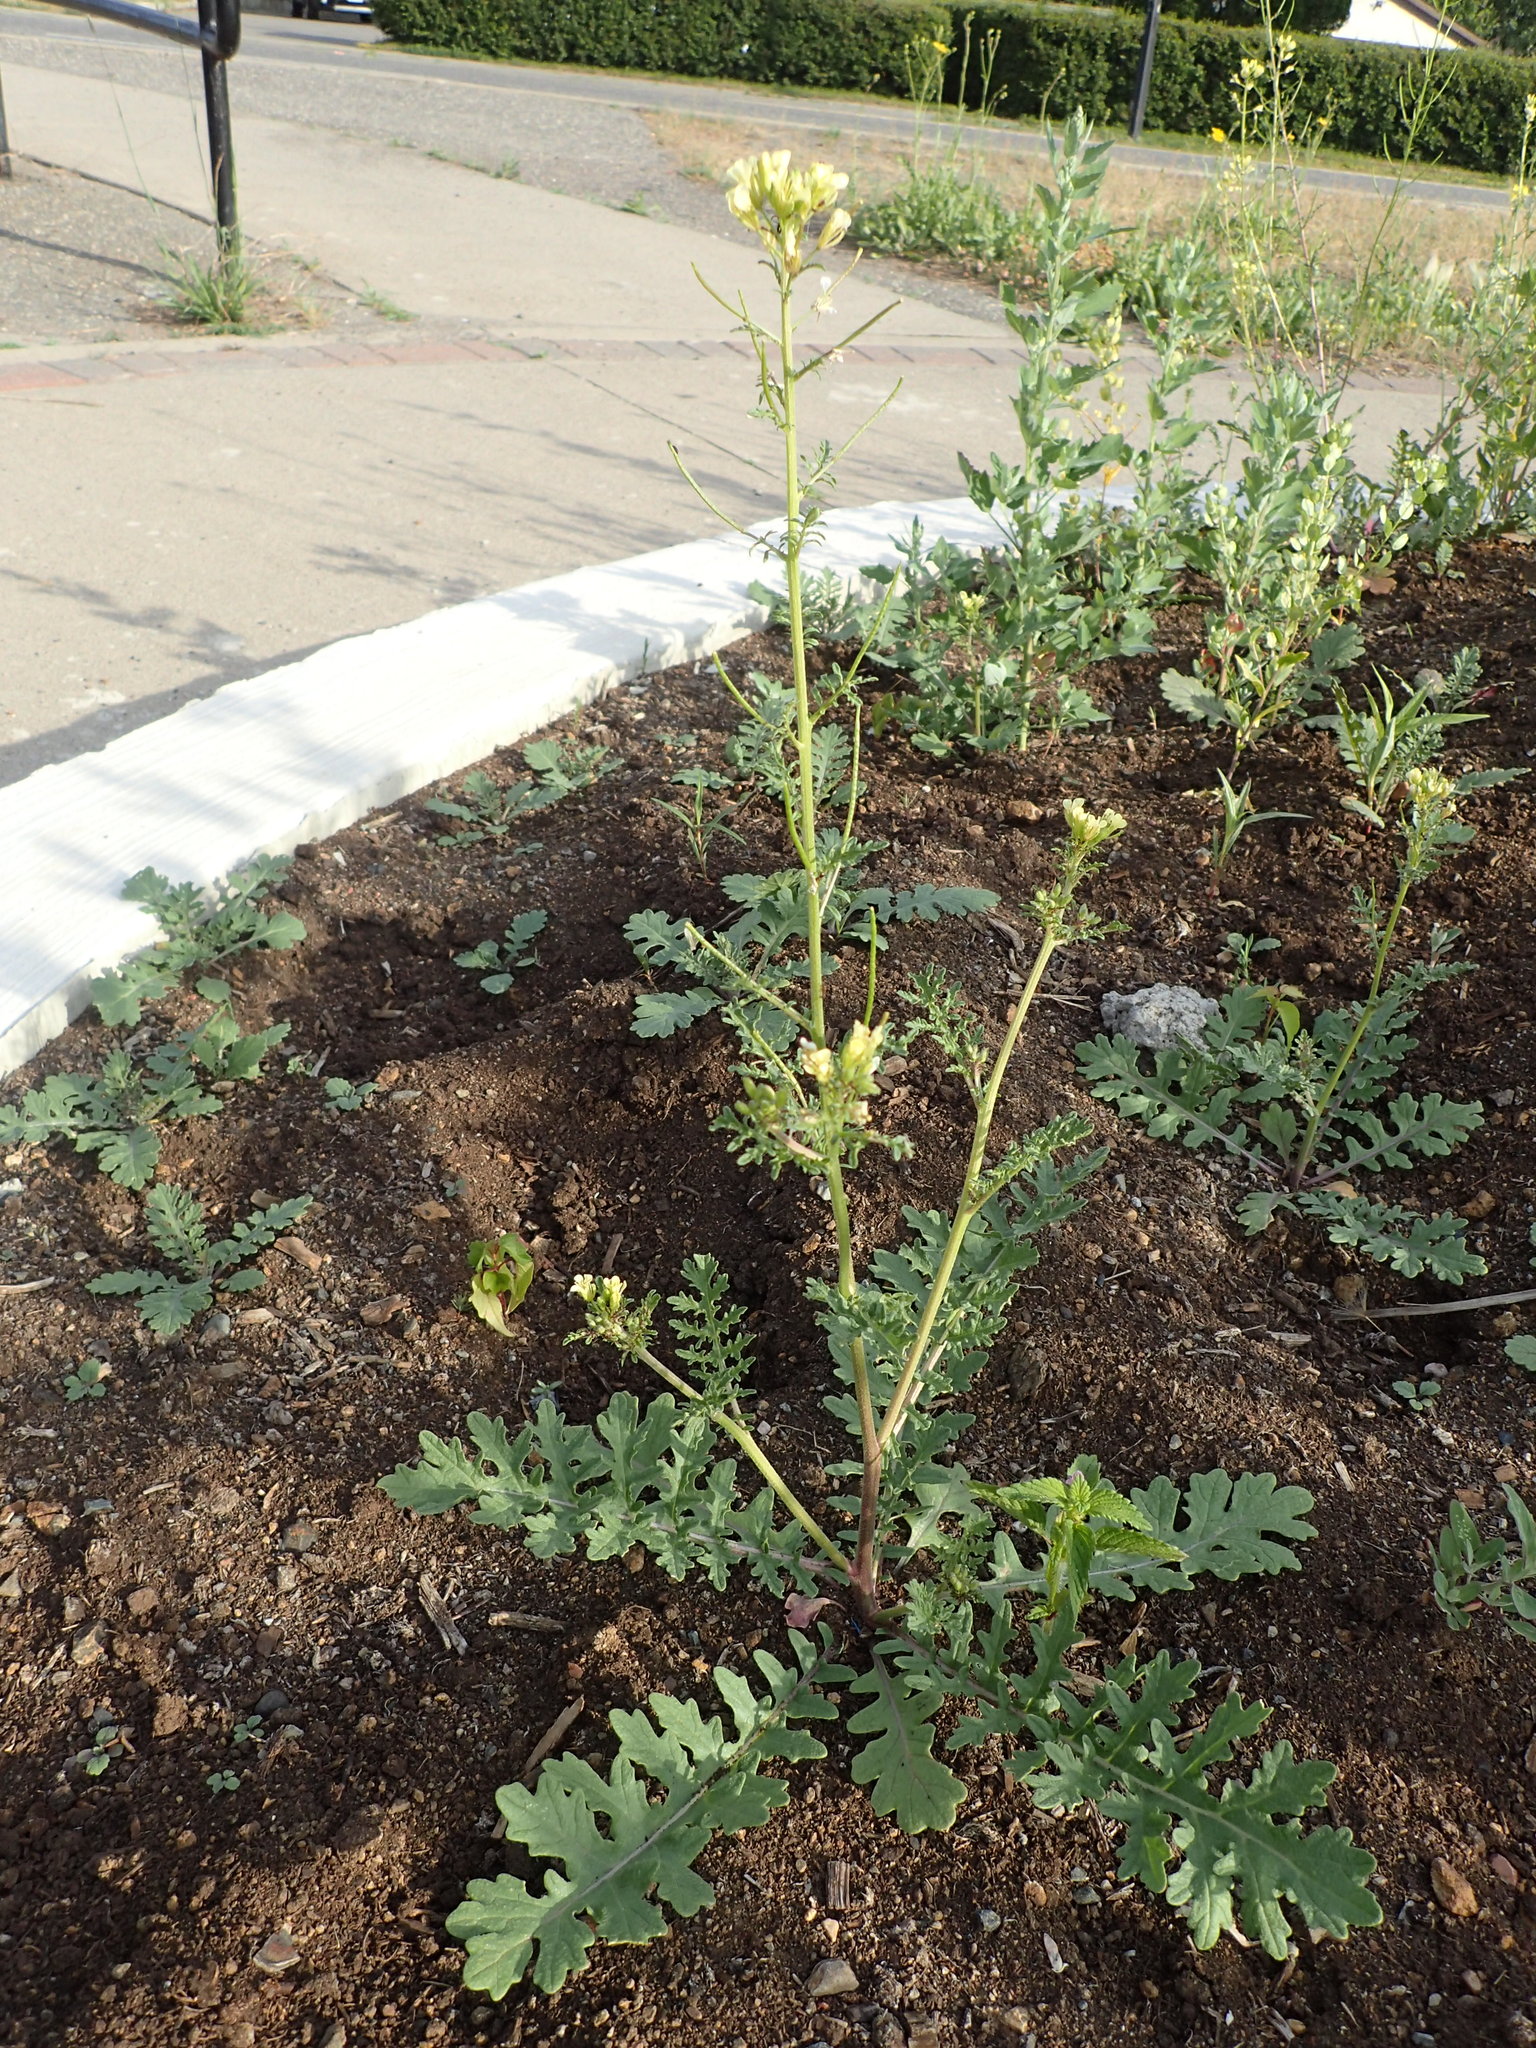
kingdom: Plantae
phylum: Tracheophyta
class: Magnoliopsida
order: Brassicales
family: Brassicaceae
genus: Erucastrum
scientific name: Erucastrum gallicum
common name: Hairy rocket
